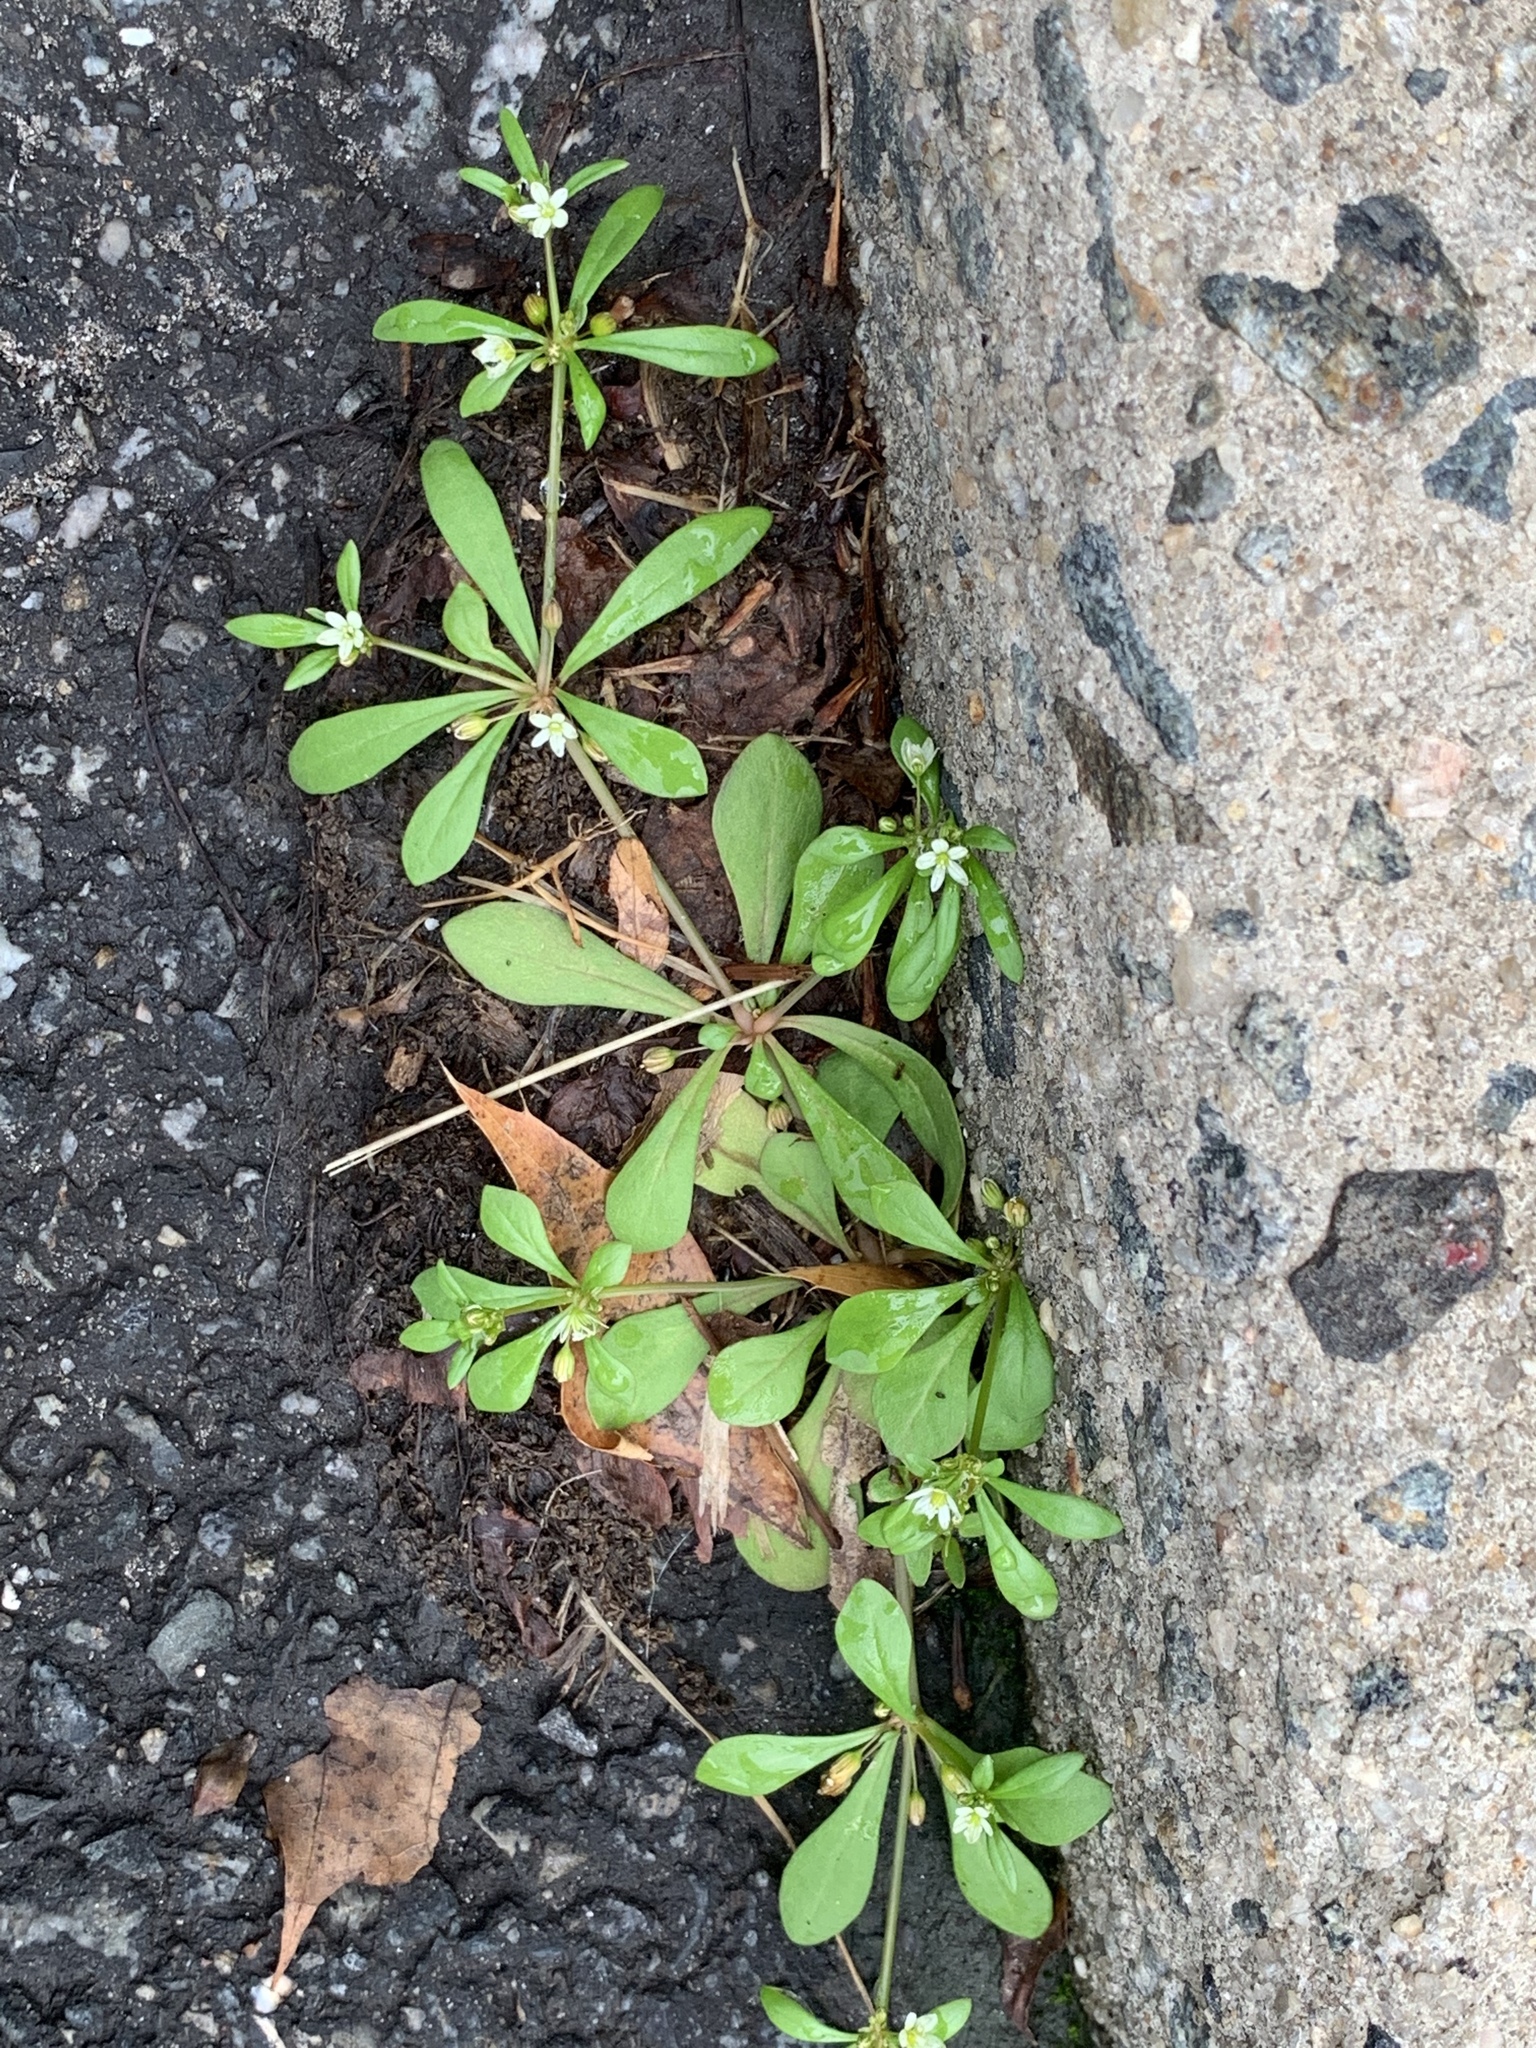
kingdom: Plantae
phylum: Tracheophyta
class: Magnoliopsida
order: Caryophyllales
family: Molluginaceae
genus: Mollugo
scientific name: Mollugo verticillata
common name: Green carpetweed
